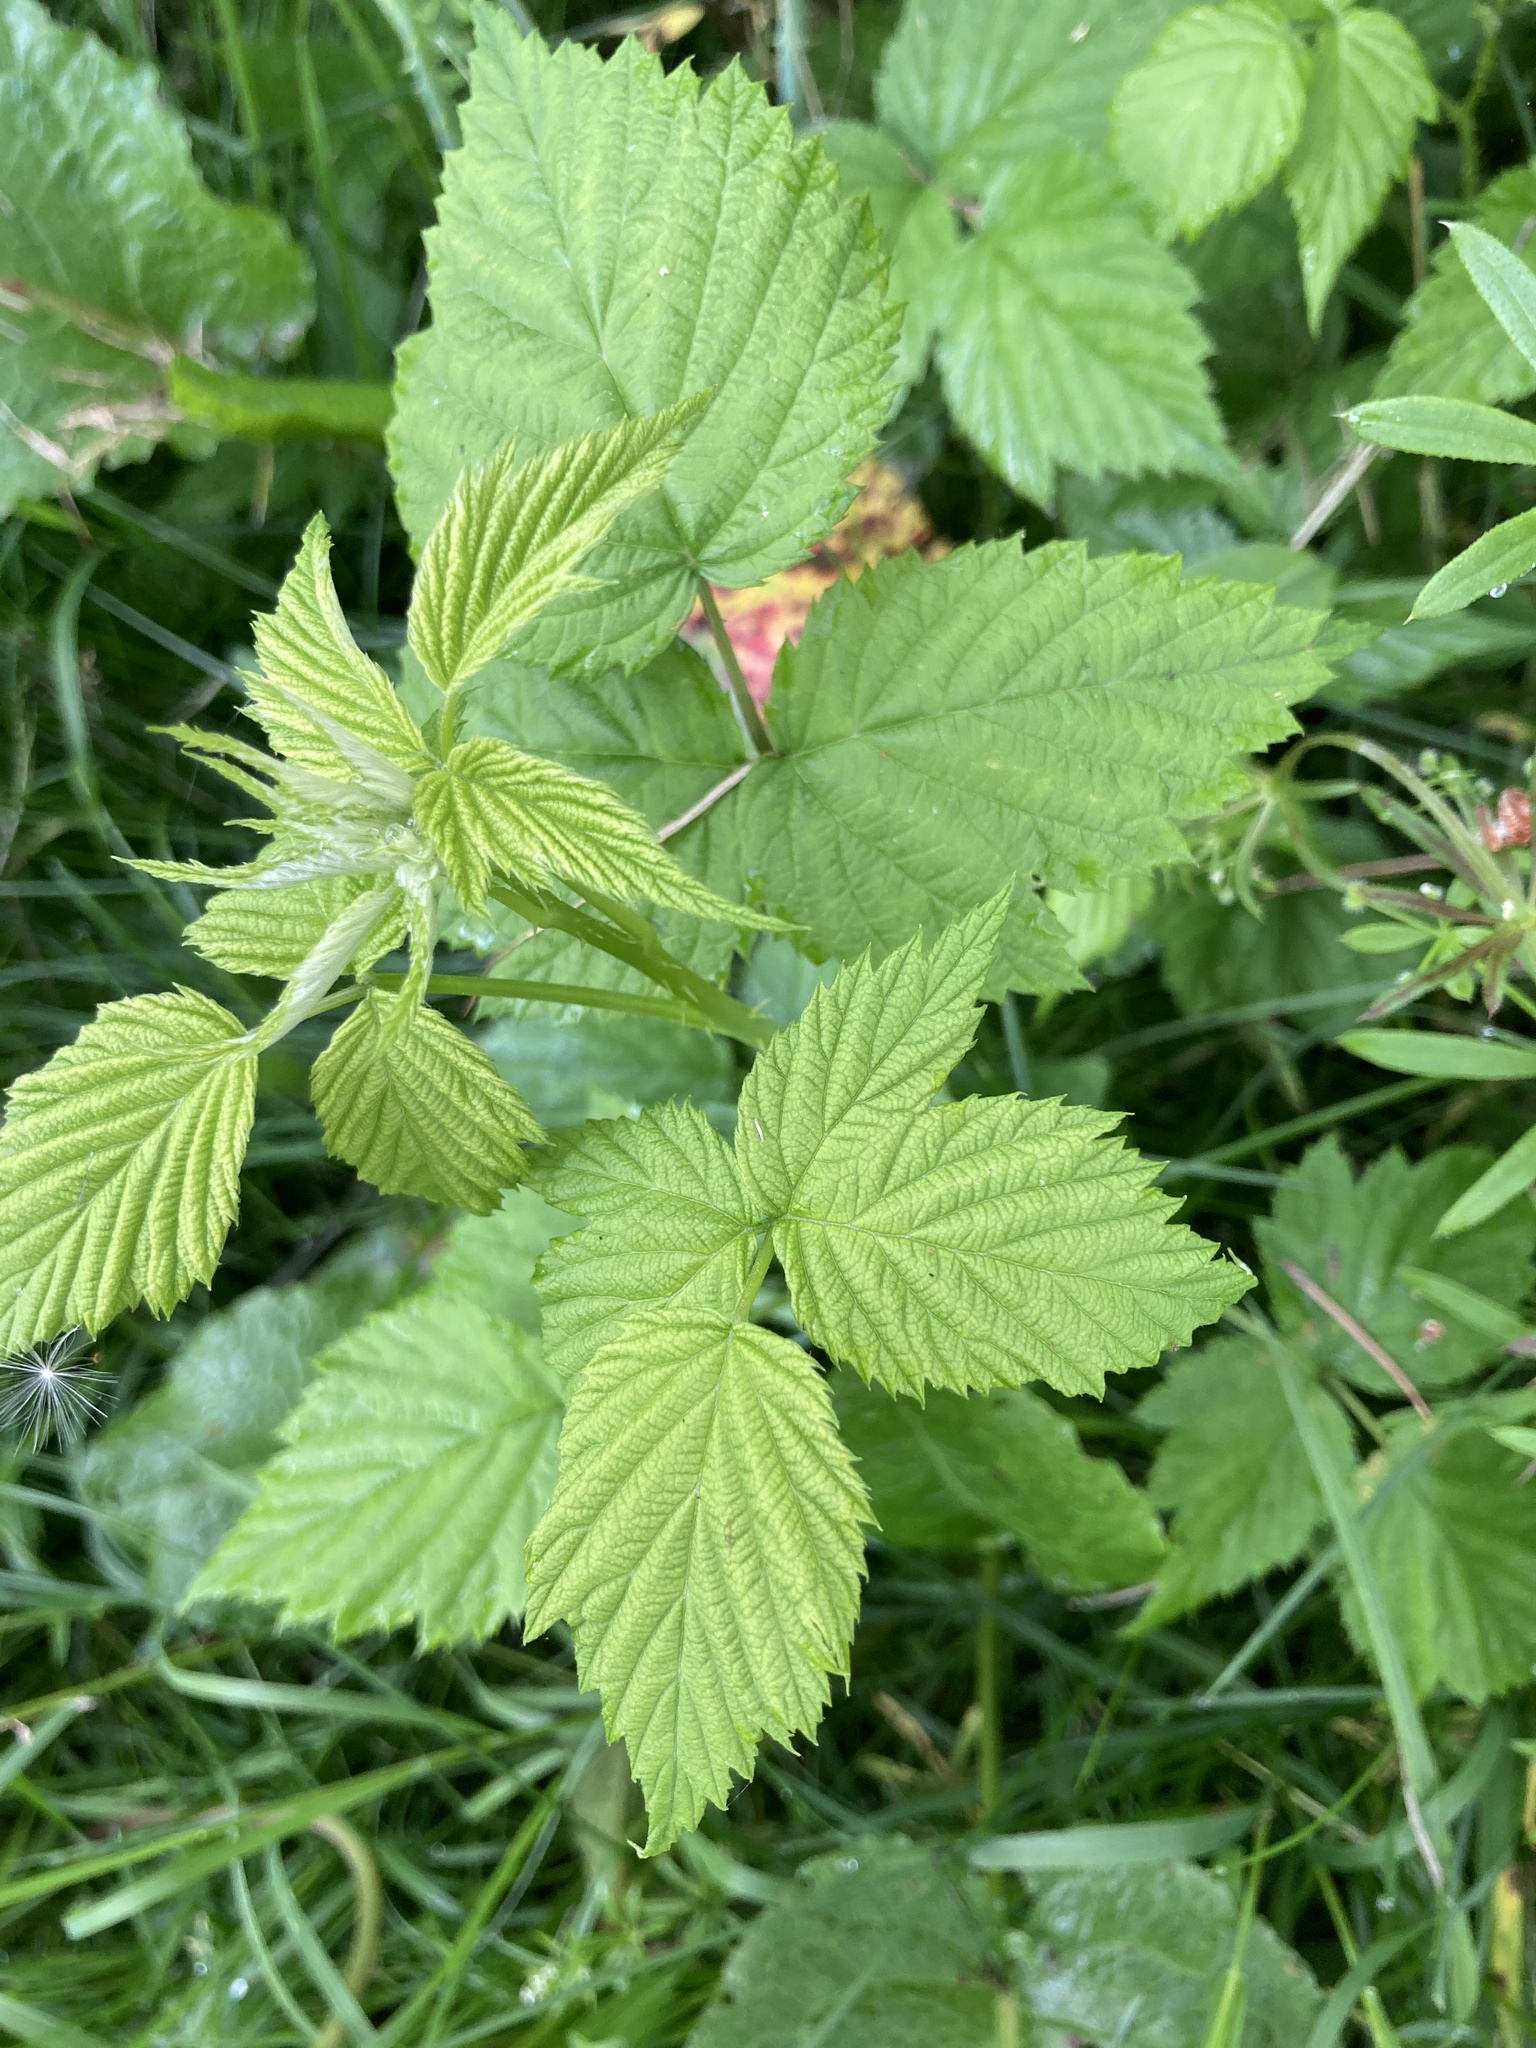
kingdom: Plantae
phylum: Tracheophyta
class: Magnoliopsida
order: Rosales
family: Rosaceae
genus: Rubus
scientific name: Rubus occidentalis
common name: Black raspberry
